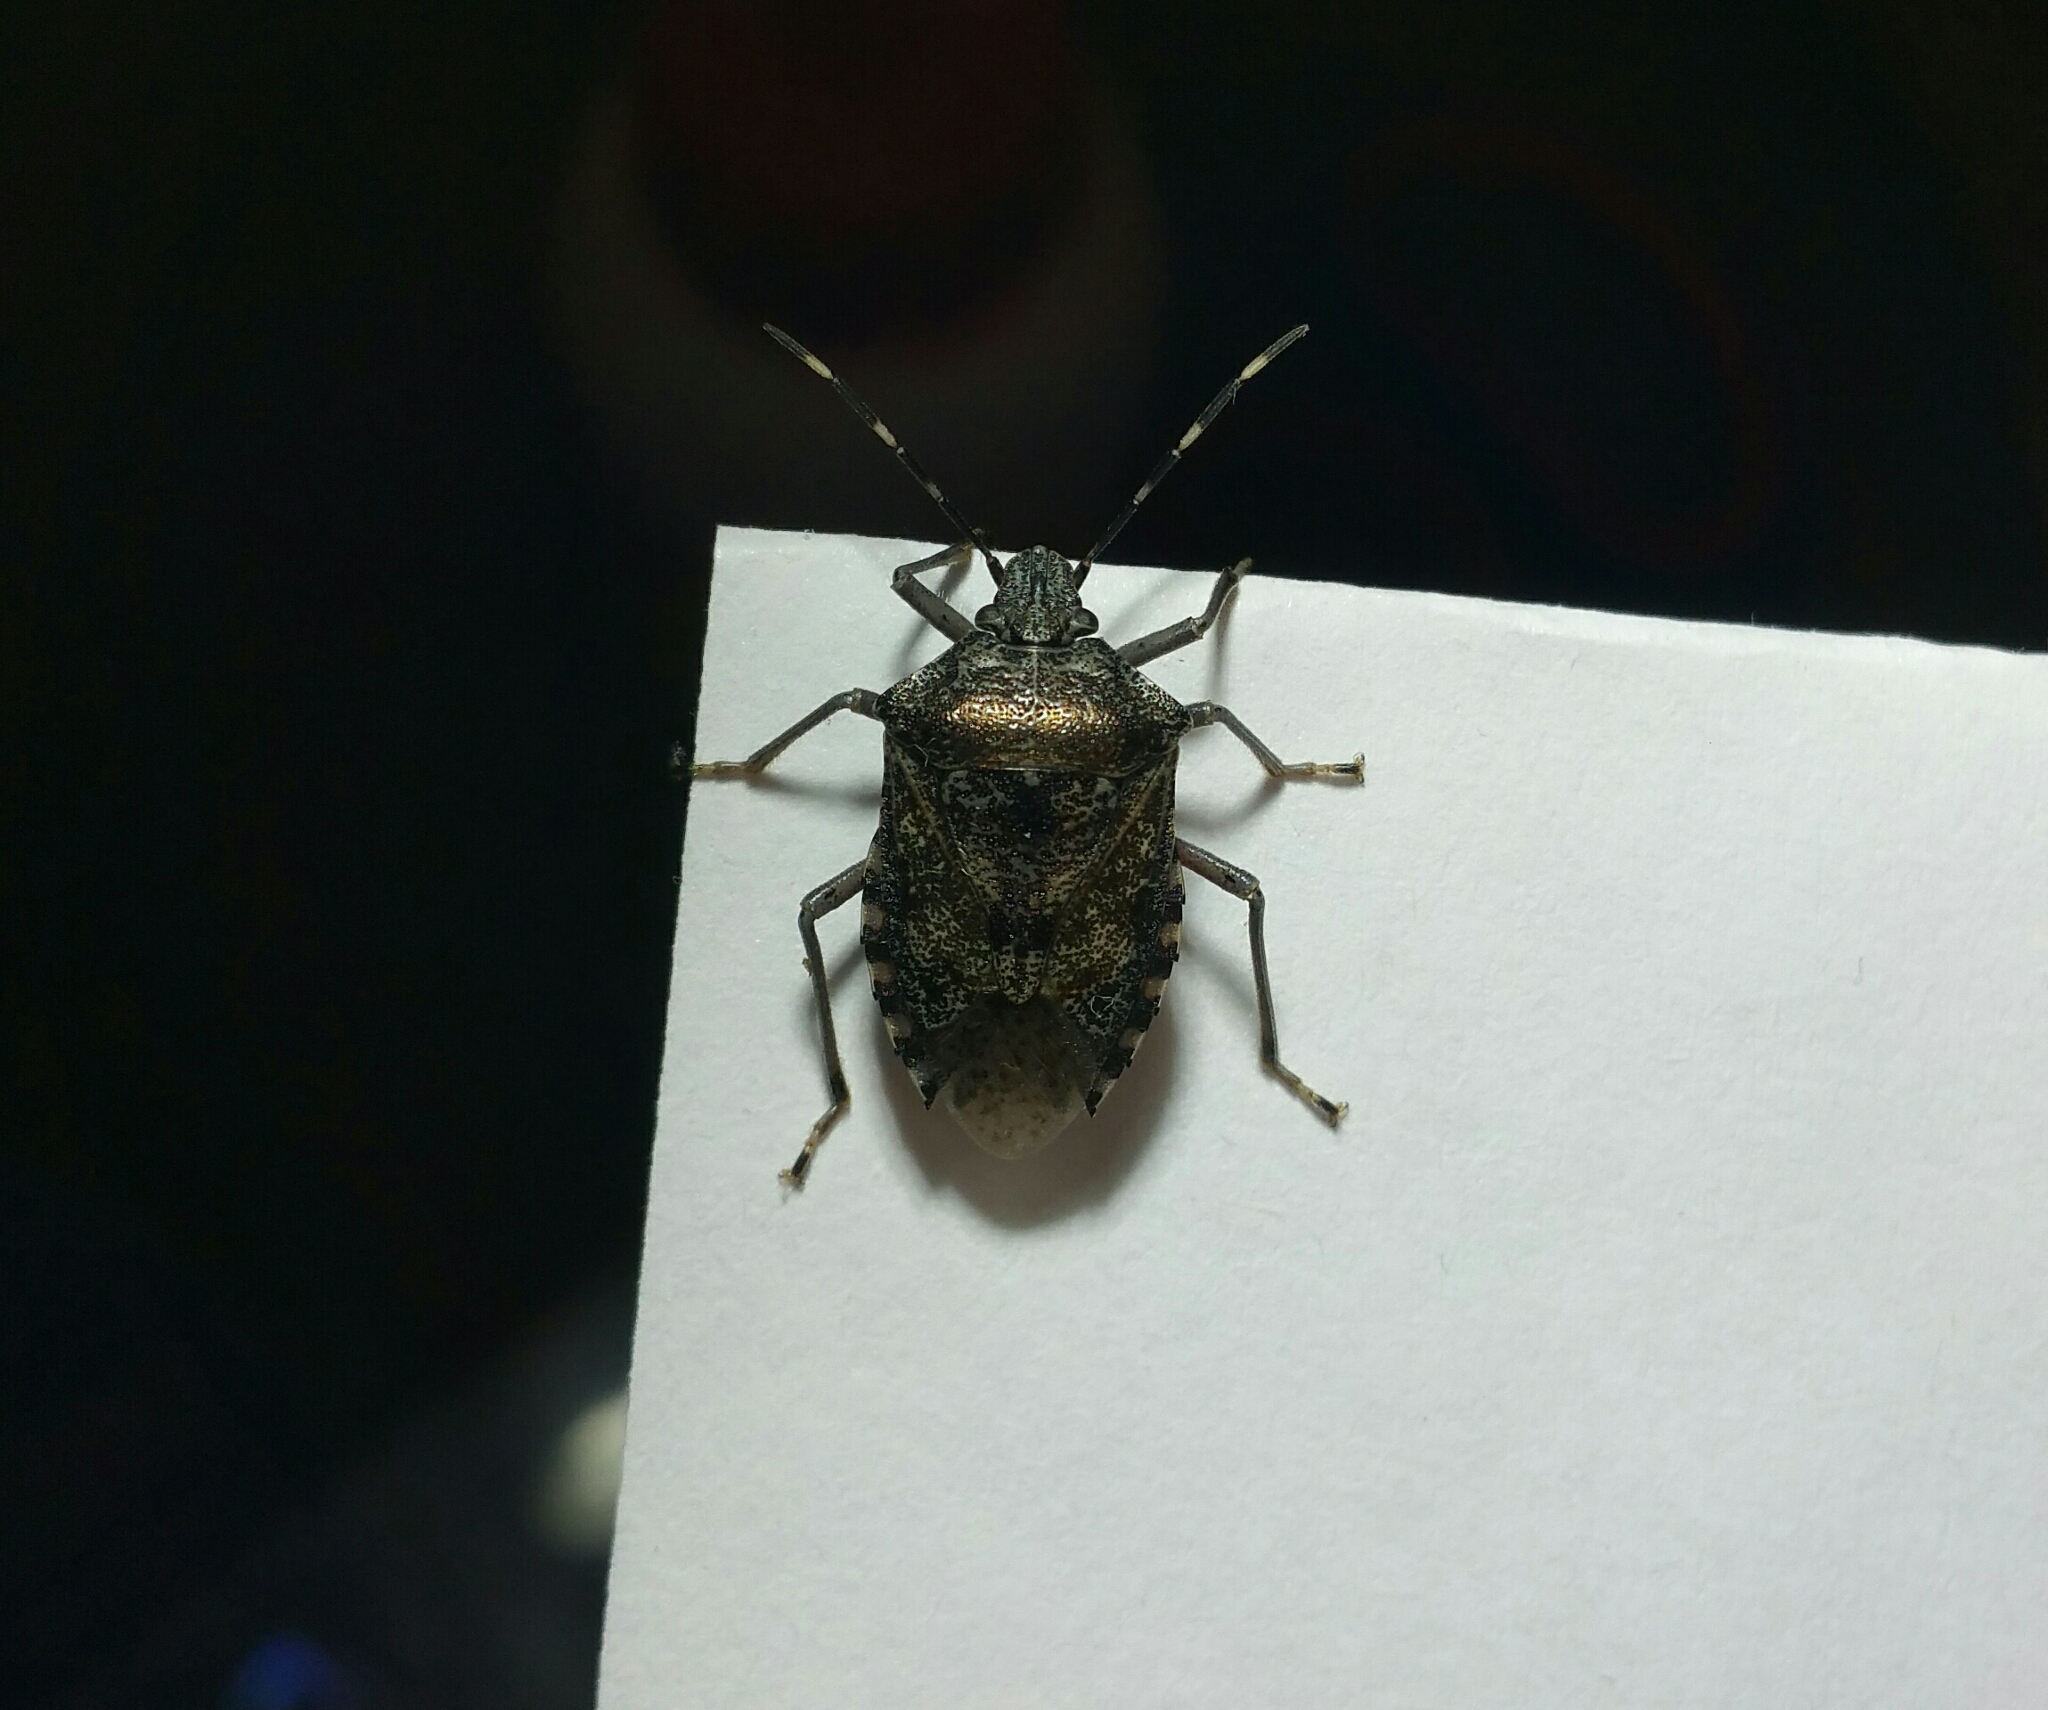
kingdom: Animalia
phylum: Arthropoda
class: Insecta
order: Hemiptera
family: Pentatomidae
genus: Rhaphigaster
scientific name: Rhaphigaster nebulosa
